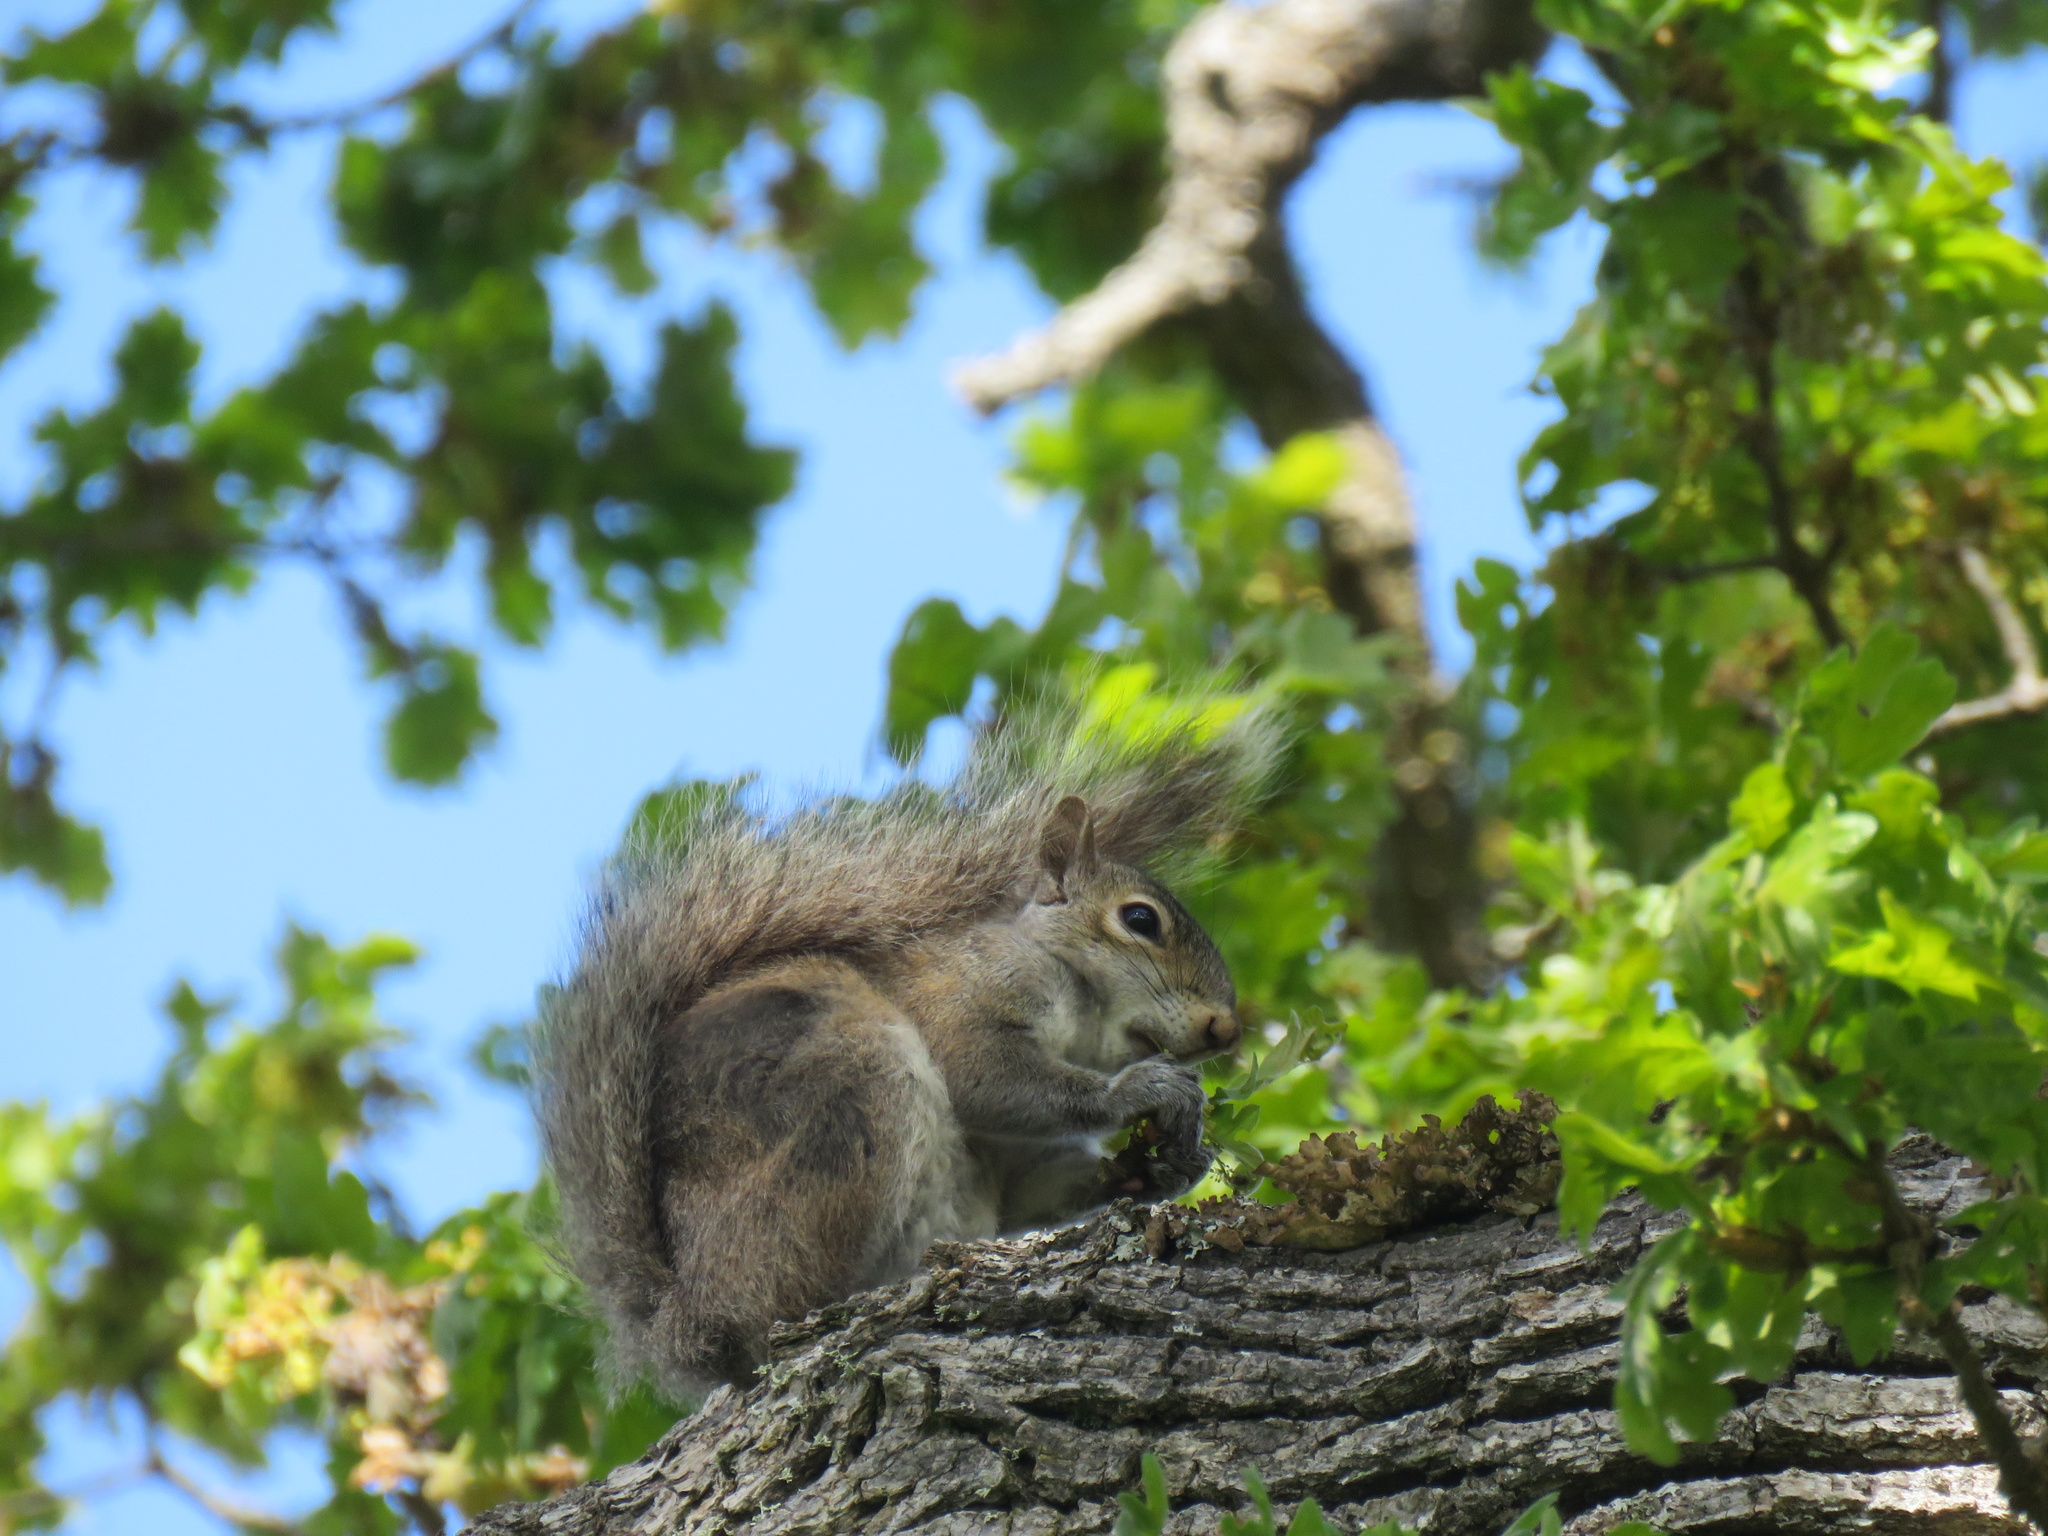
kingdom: Animalia
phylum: Chordata
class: Mammalia
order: Rodentia
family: Sciuridae
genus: Sciurus
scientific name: Sciurus carolinensis
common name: Eastern gray squirrel
